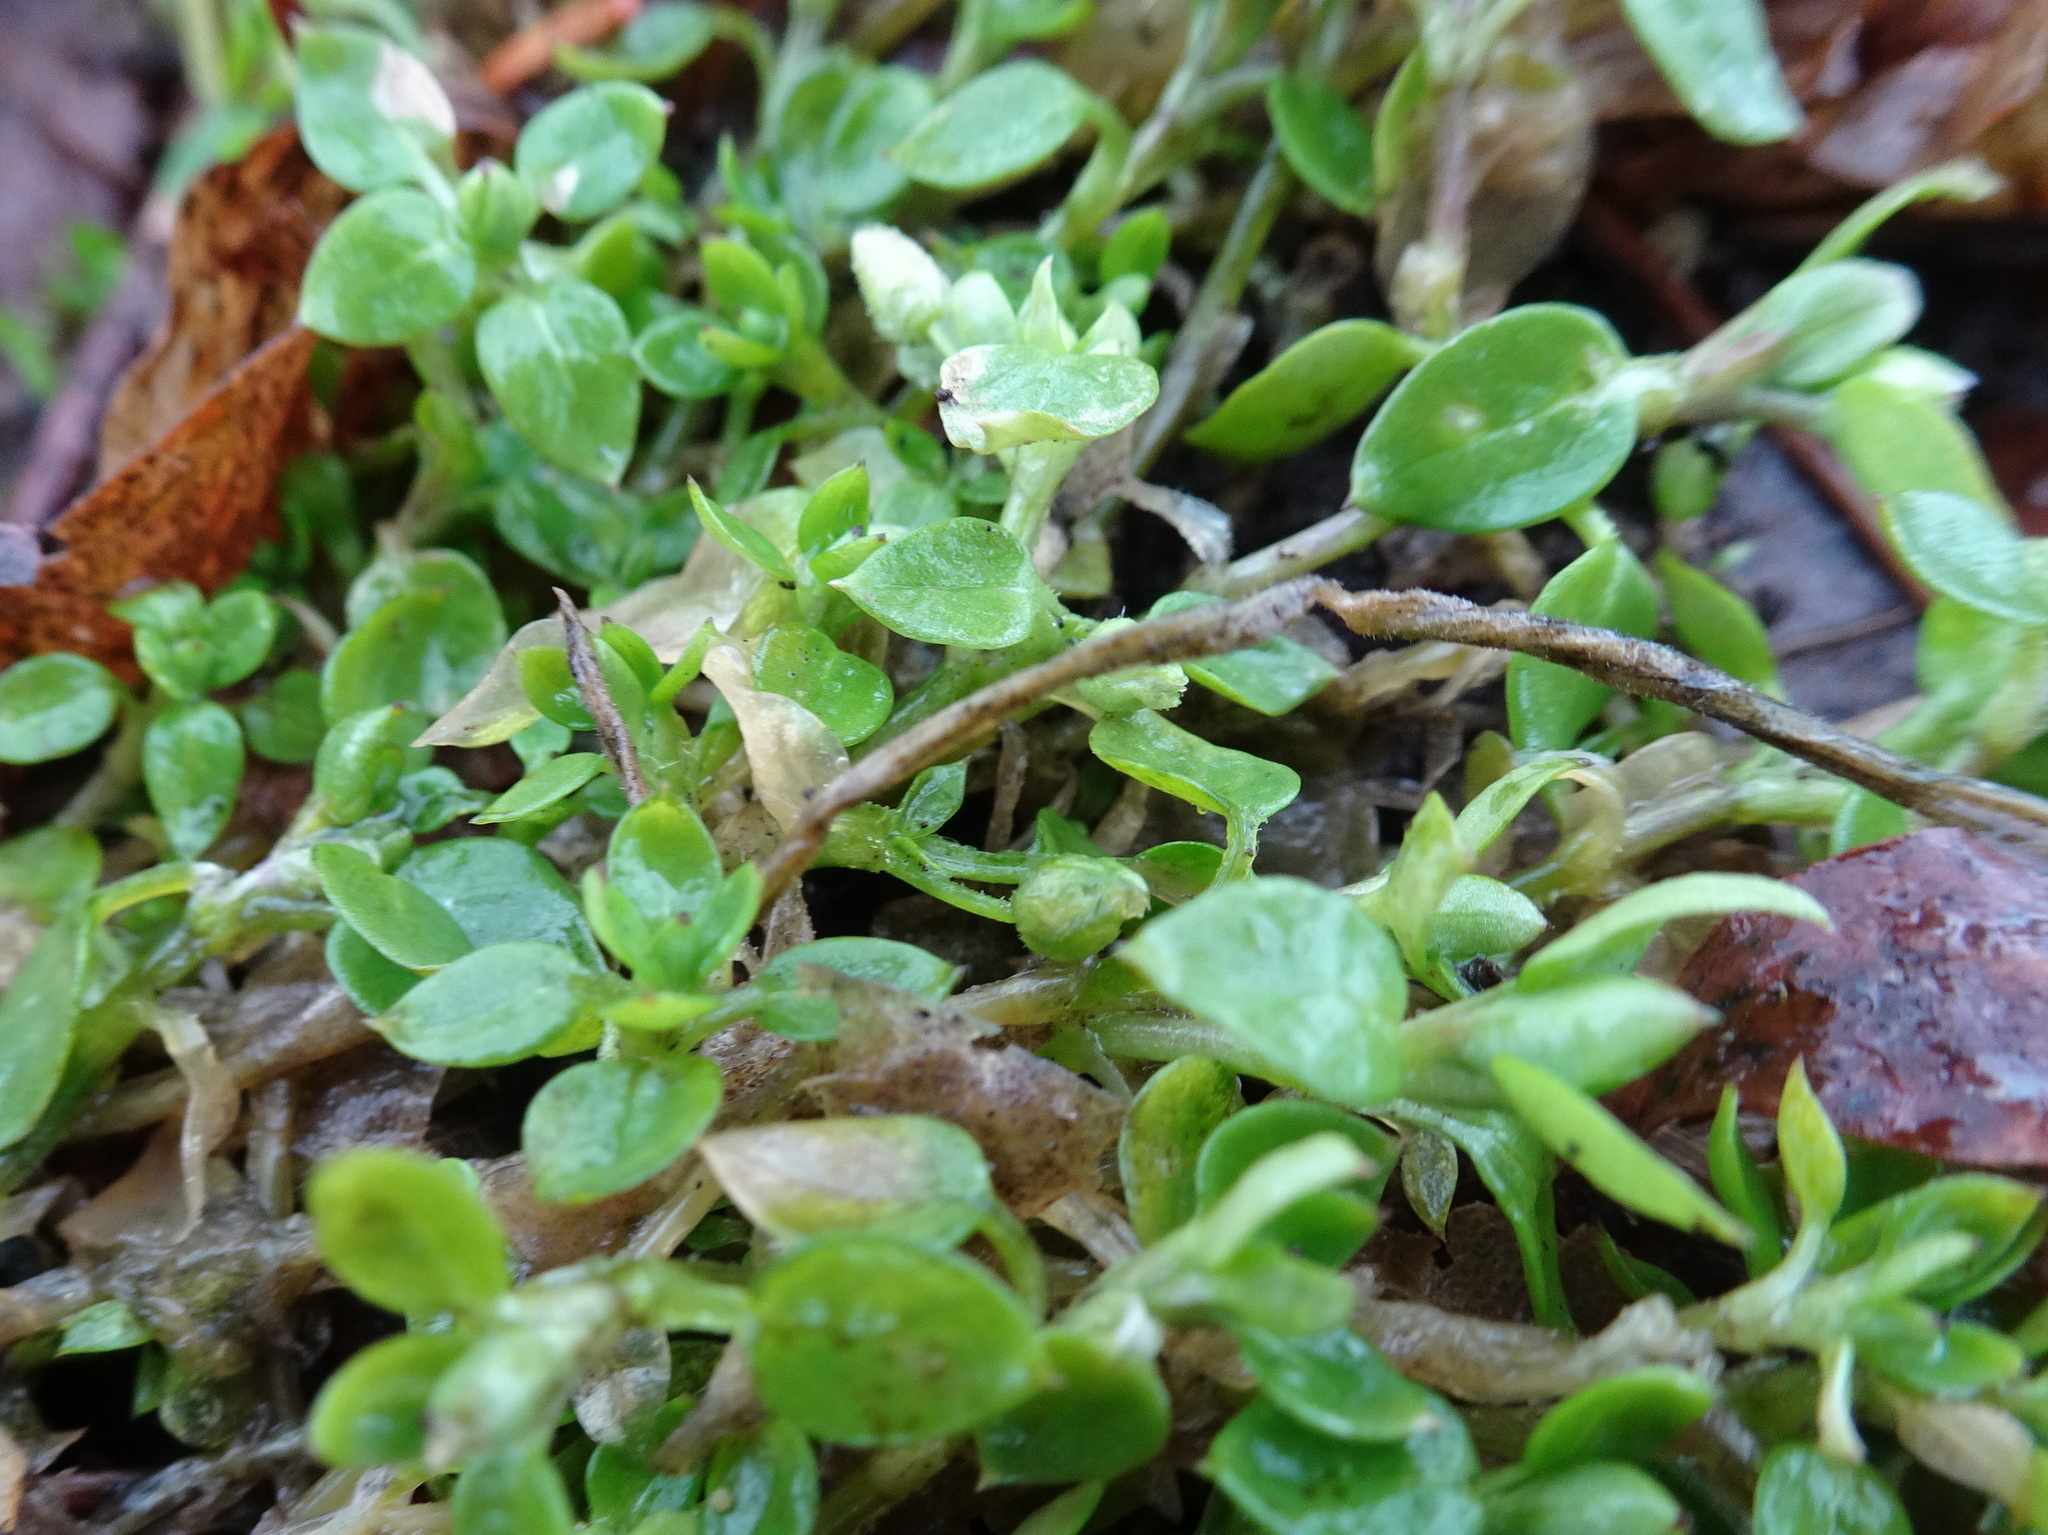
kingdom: Plantae
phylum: Tracheophyta
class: Magnoliopsida
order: Caryophyllales
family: Caryophyllaceae
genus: Stellaria
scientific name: Stellaria media
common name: Common chickweed
